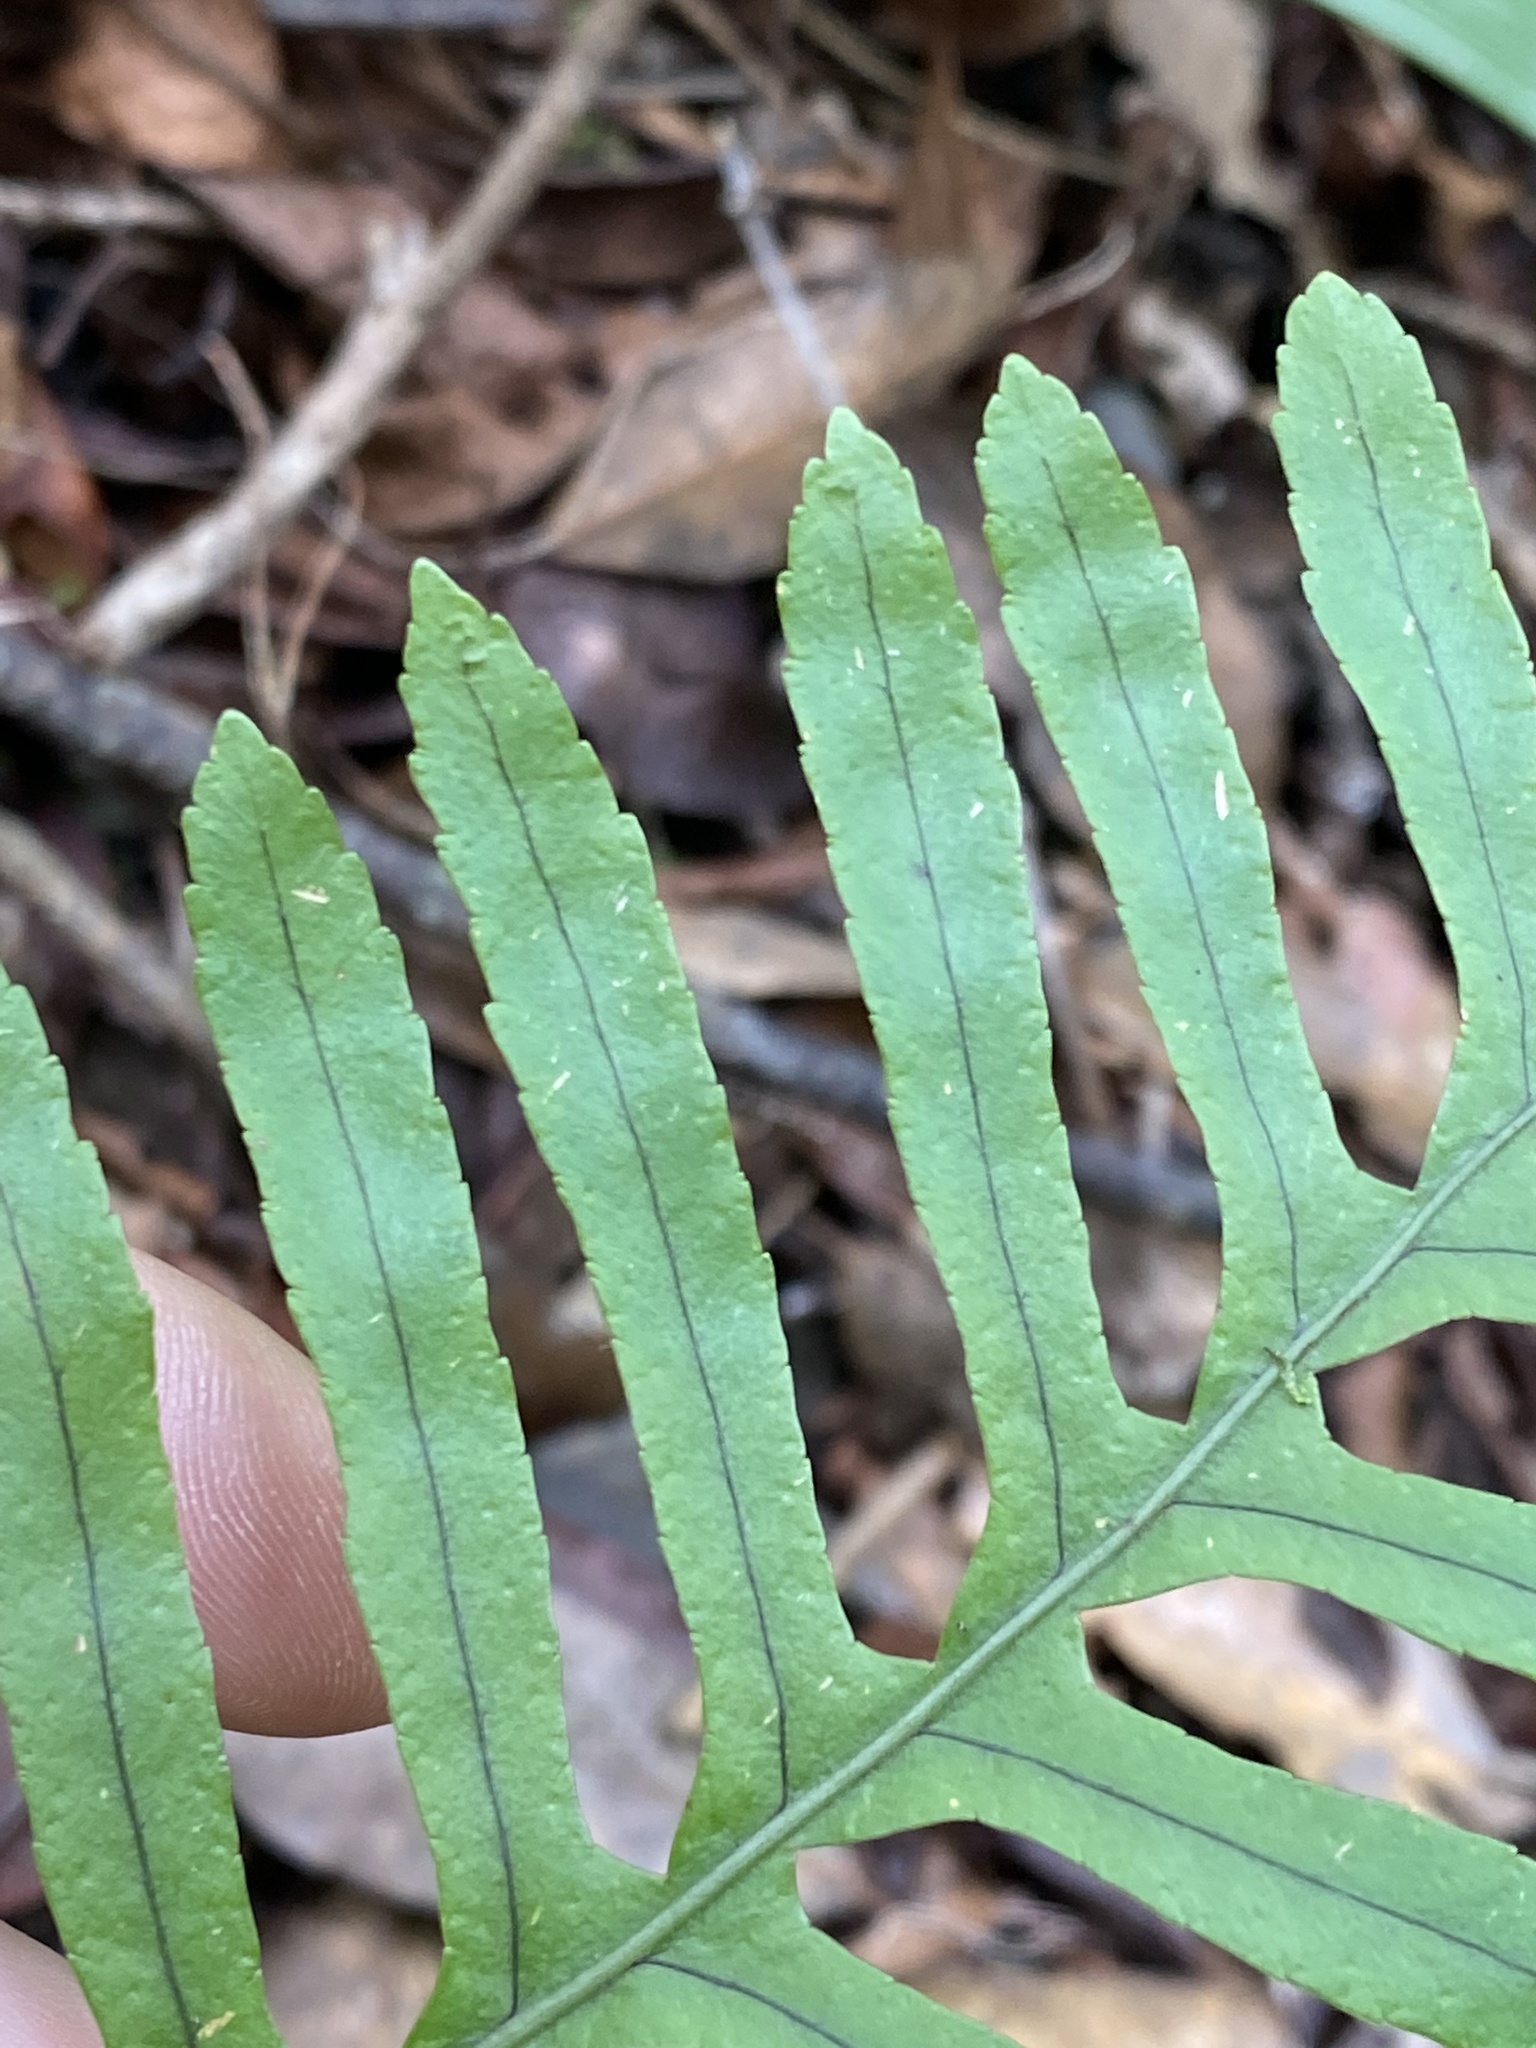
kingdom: Plantae
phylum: Tracheophyta
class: Polypodiopsida
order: Polypodiales
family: Polypodiaceae
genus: Polypodium
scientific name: Polypodium macaronesicum
